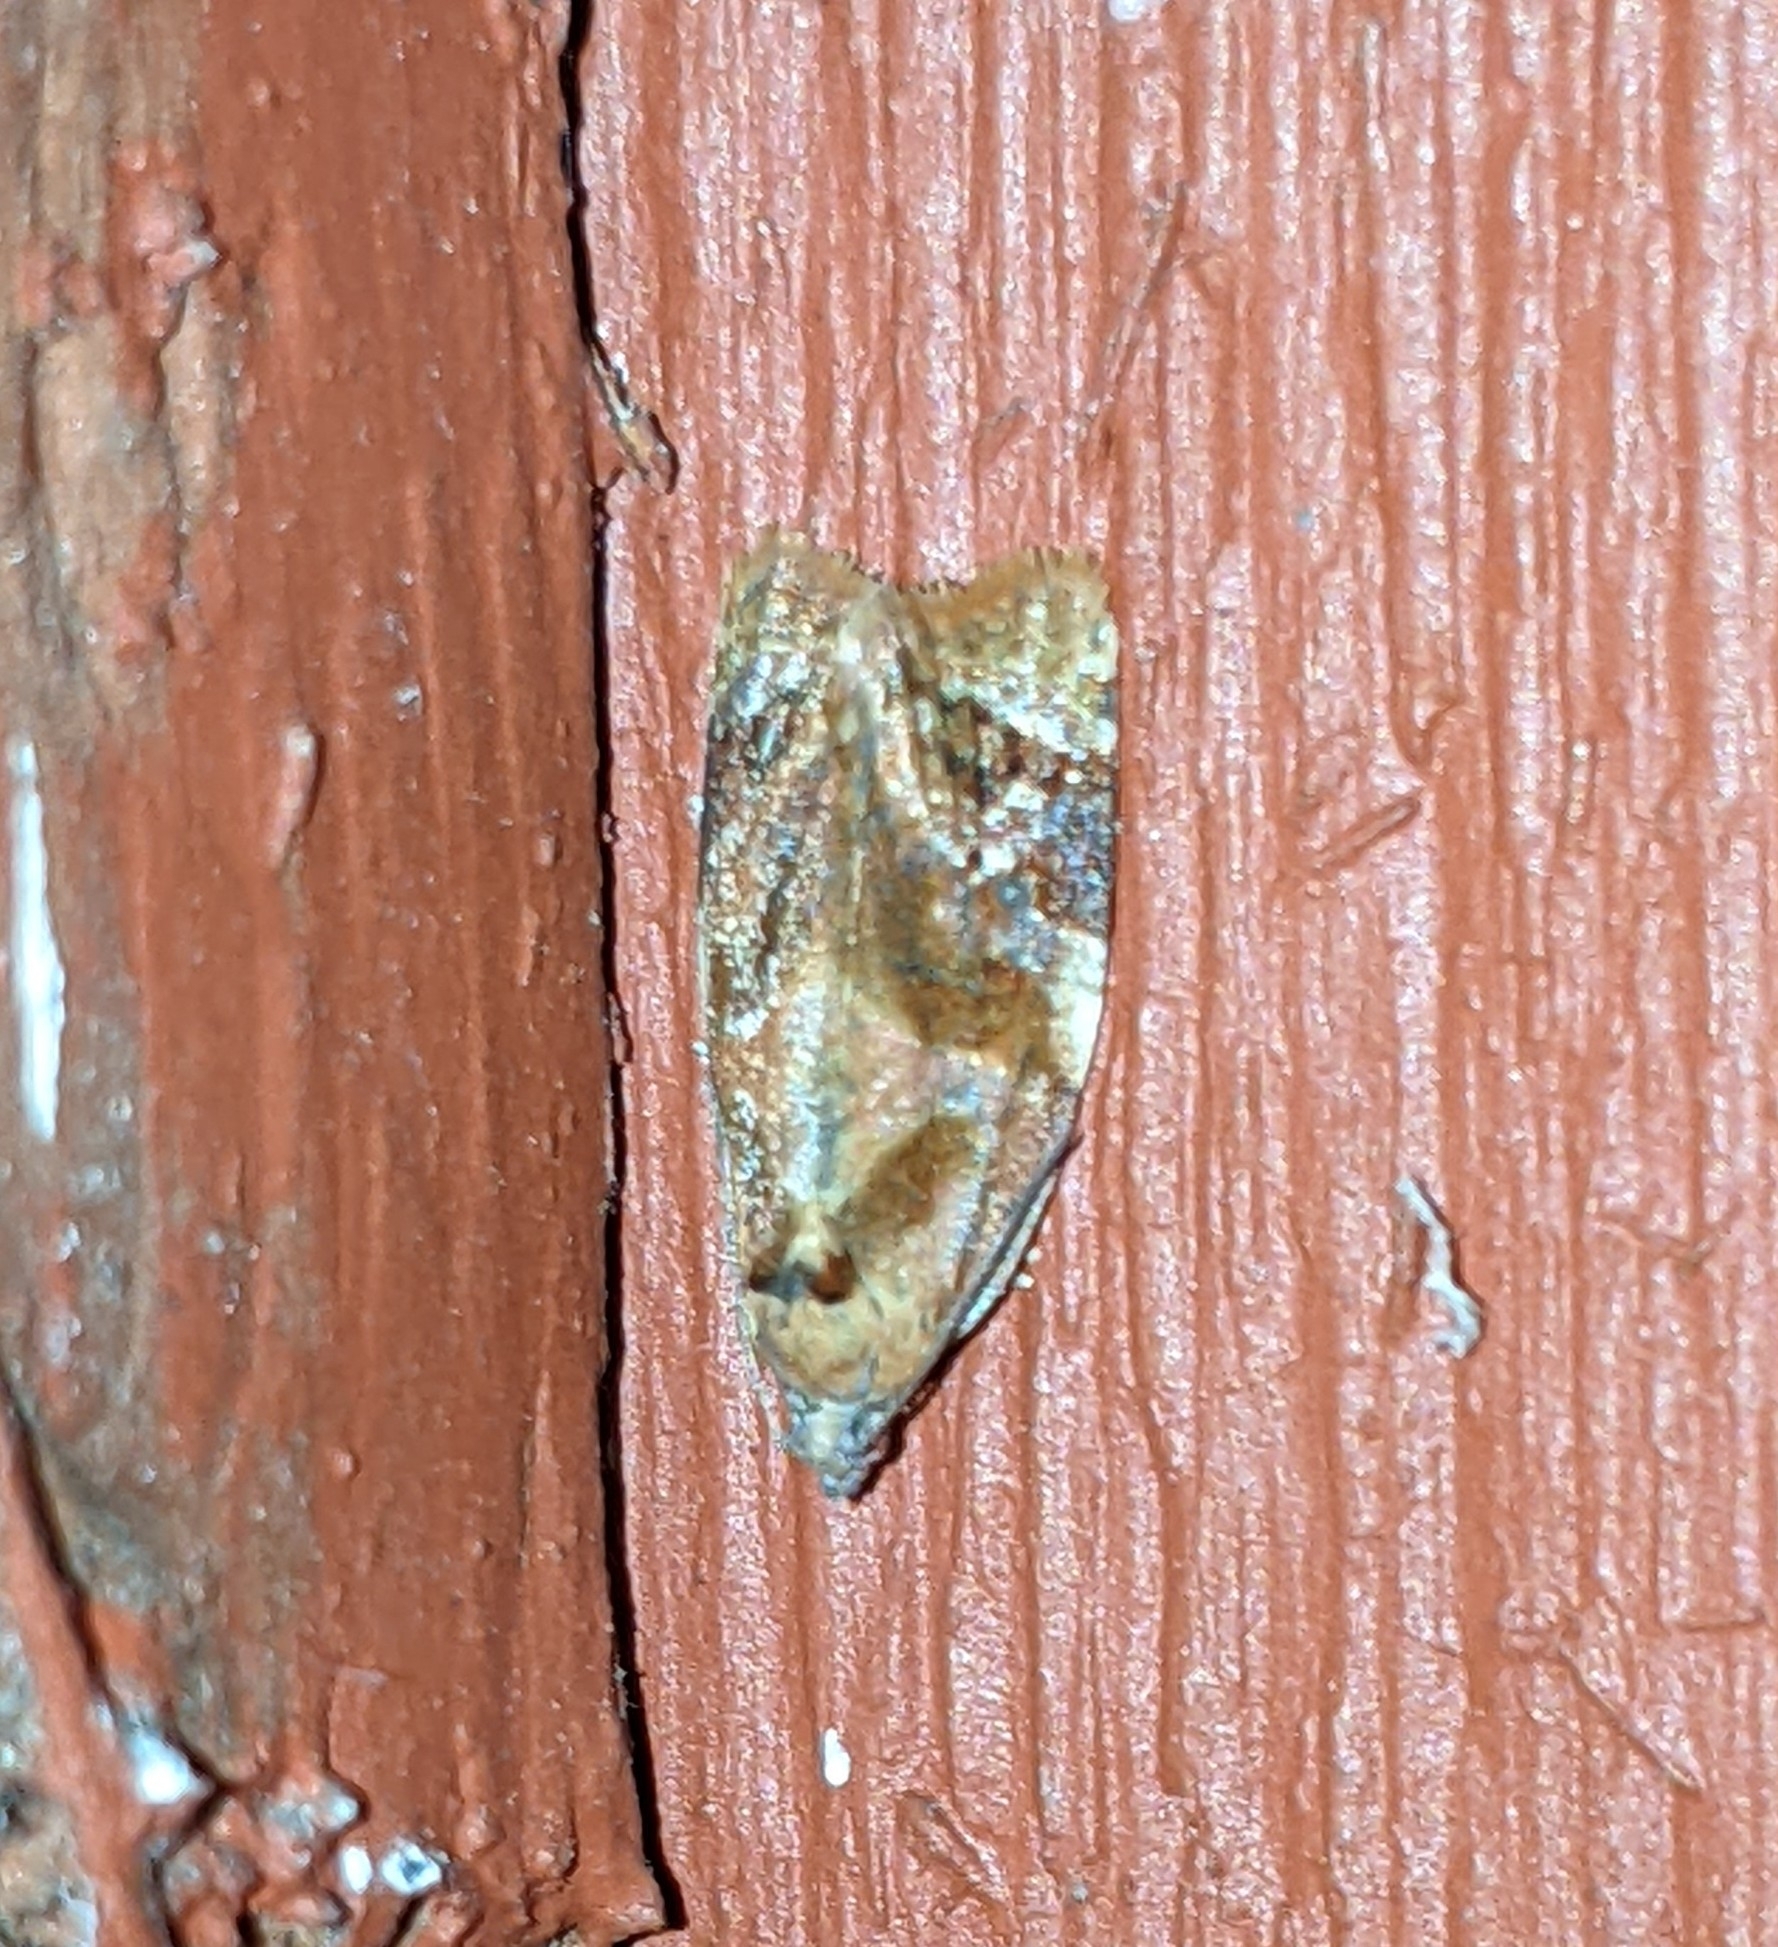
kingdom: Animalia
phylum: Arthropoda
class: Insecta
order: Lepidoptera
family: Tortricidae
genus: Ditula
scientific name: Ditula angustiorana
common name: Red-barred tortrix
